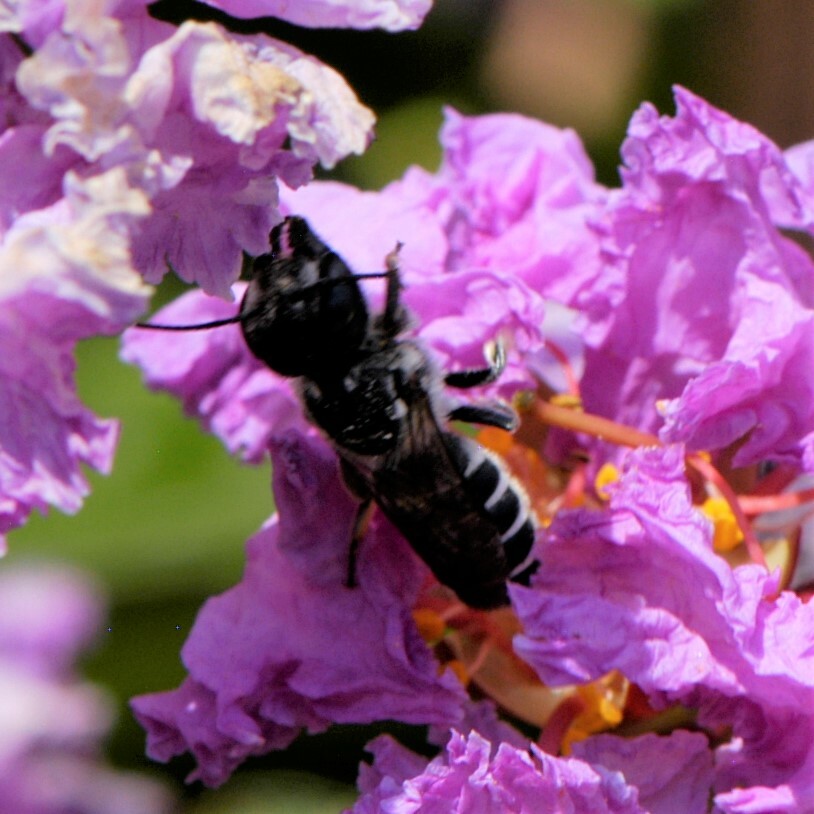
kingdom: Animalia
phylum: Arthropoda
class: Insecta
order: Hymenoptera
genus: Chelostomoides
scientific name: Chelostomoides
